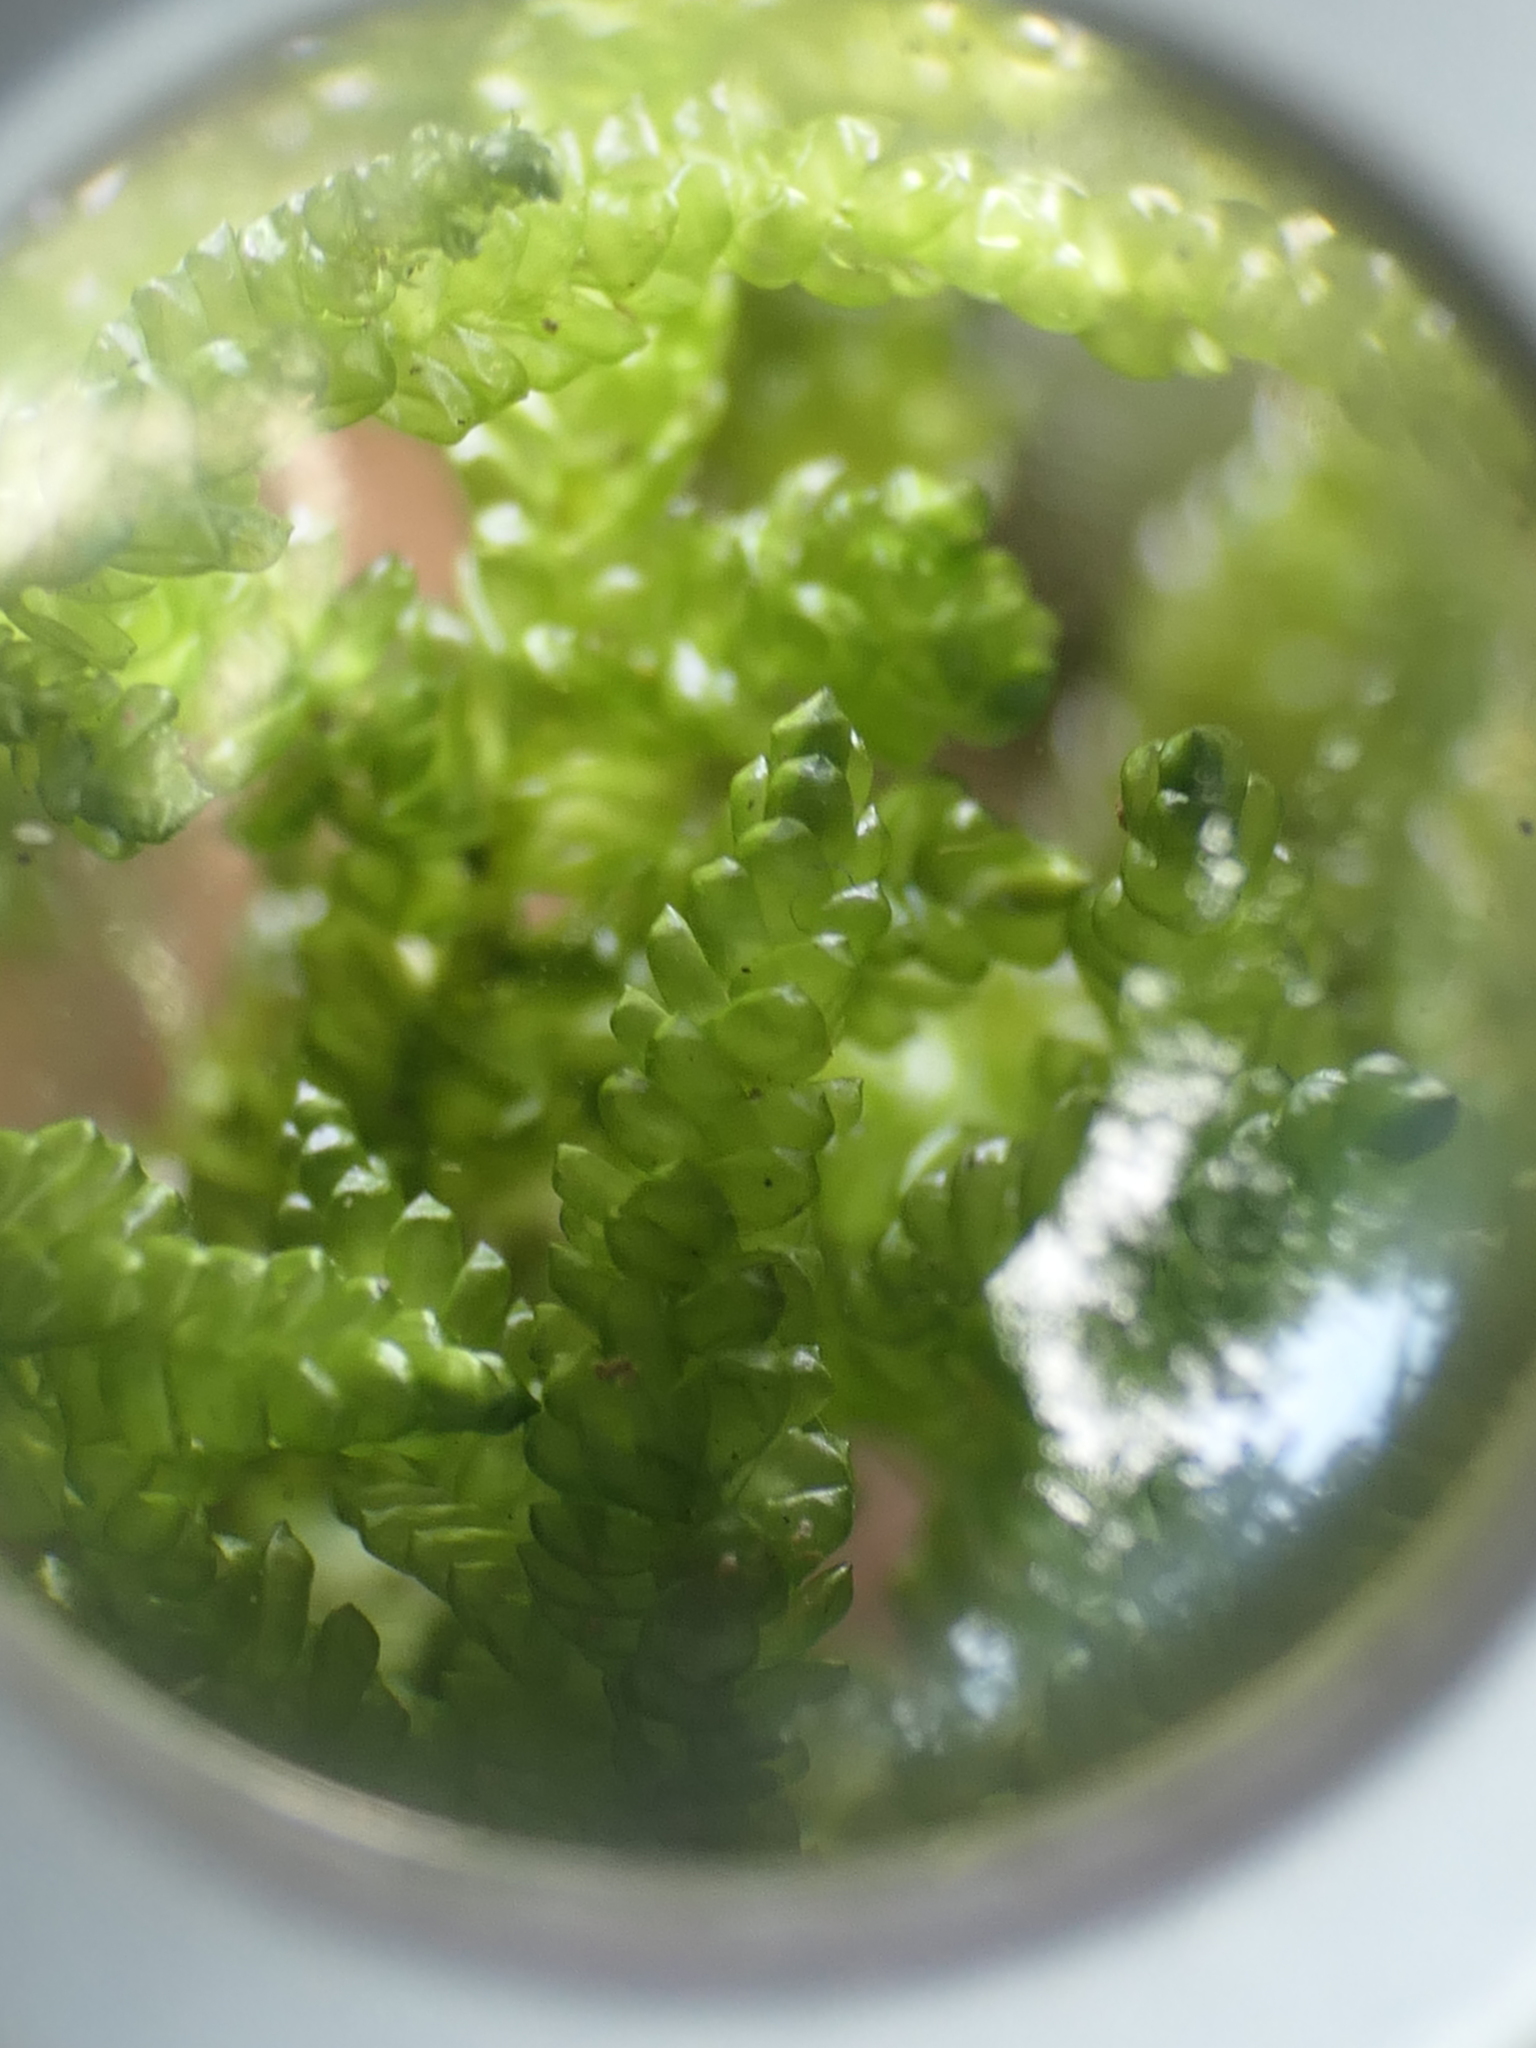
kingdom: Plantae
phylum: Bryophyta
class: Bryopsida
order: Hypnales
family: Lembophyllaceae
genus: Weymouthia
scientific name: Weymouthia cochlearifolia
